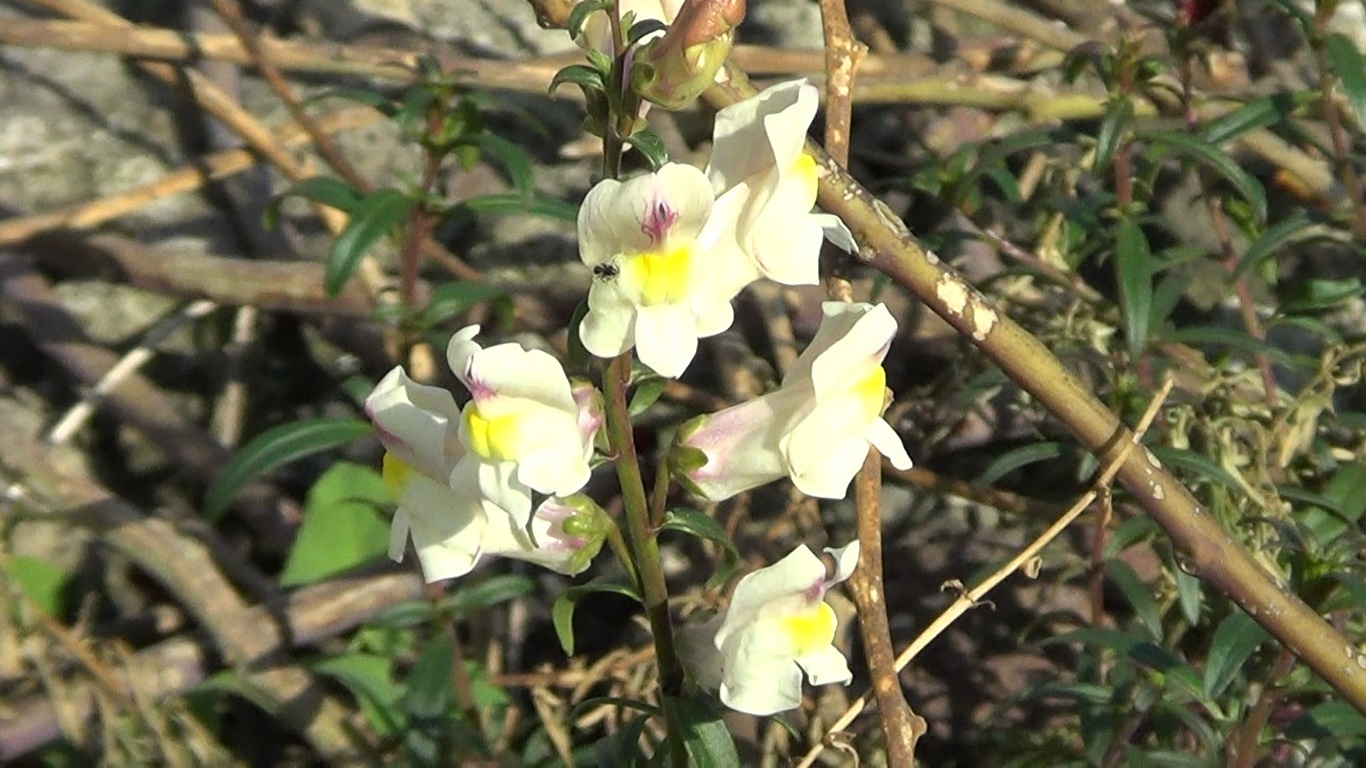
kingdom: Plantae
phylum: Tracheophyta
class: Magnoliopsida
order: Lamiales
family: Plantaginaceae
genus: Antirrhinum
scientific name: Antirrhinum siculum
